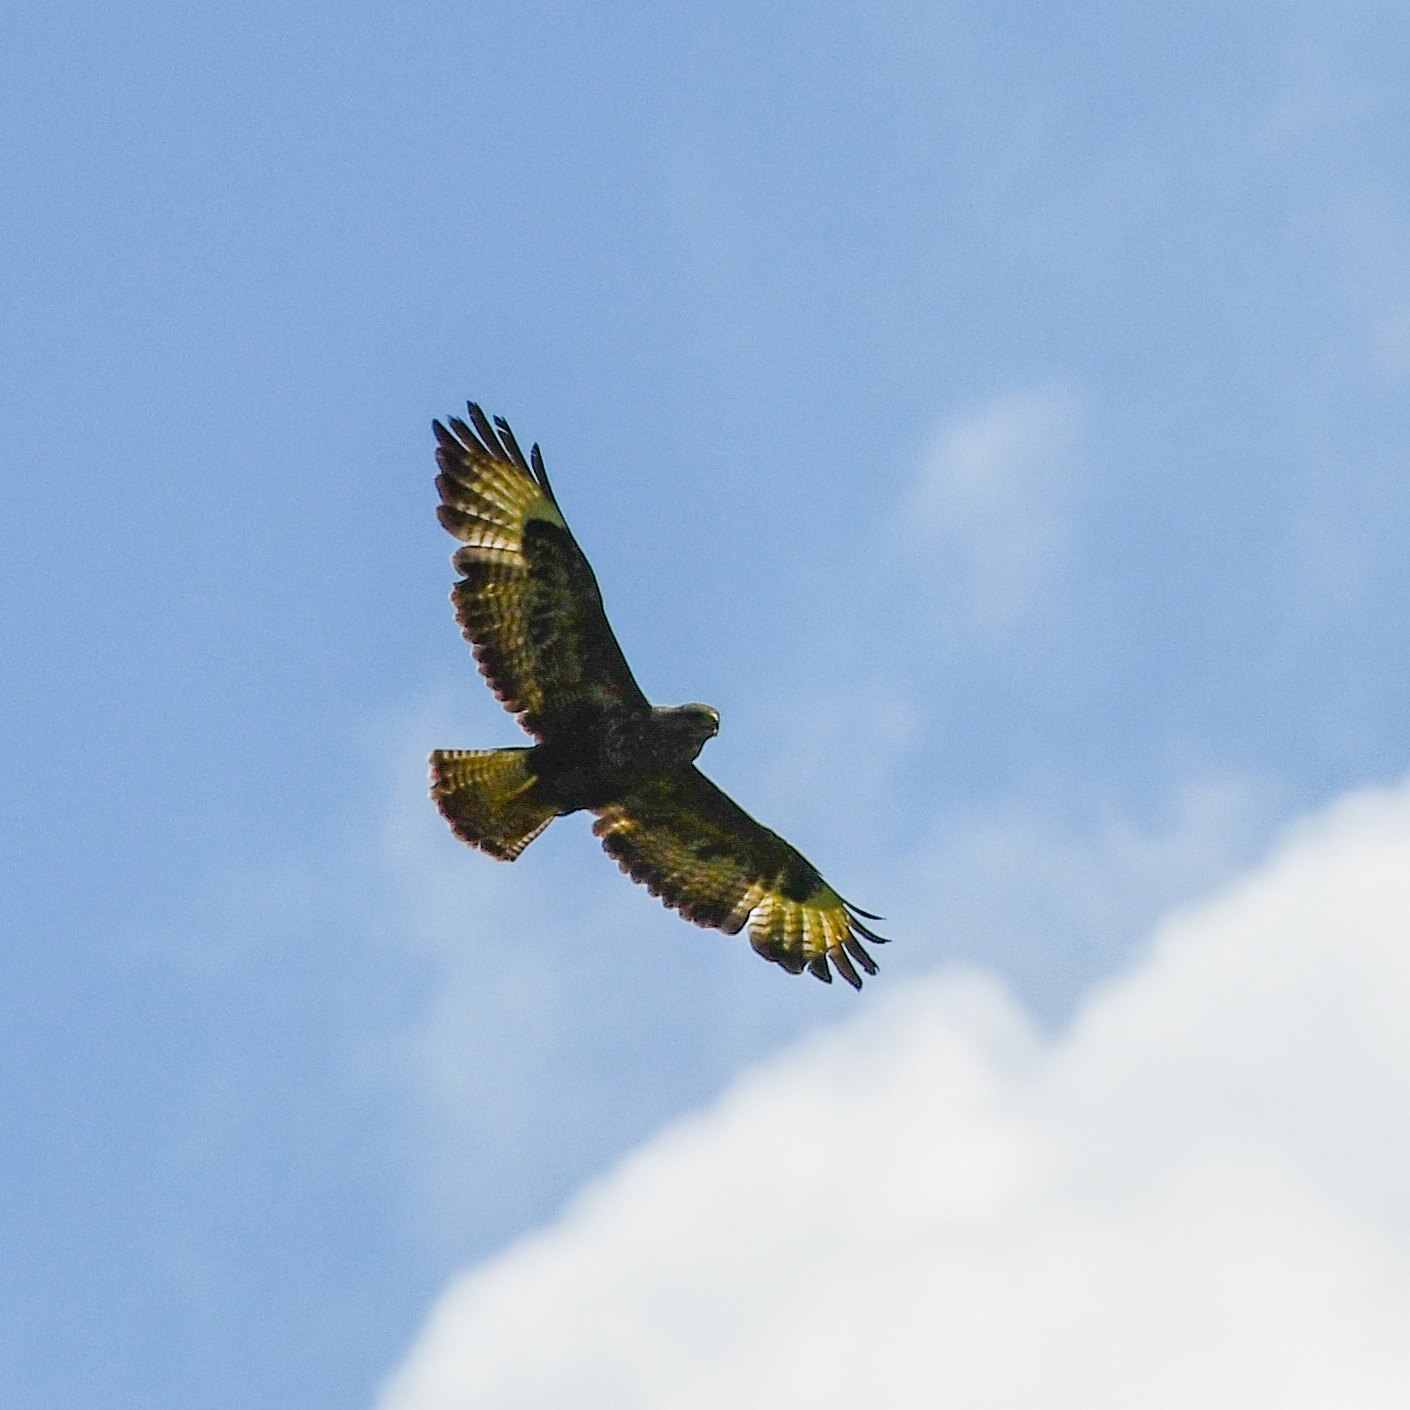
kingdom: Animalia
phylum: Chordata
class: Aves
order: Accipitriformes
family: Accipitridae
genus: Buteo
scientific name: Buteo buteo
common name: Common buzzard
